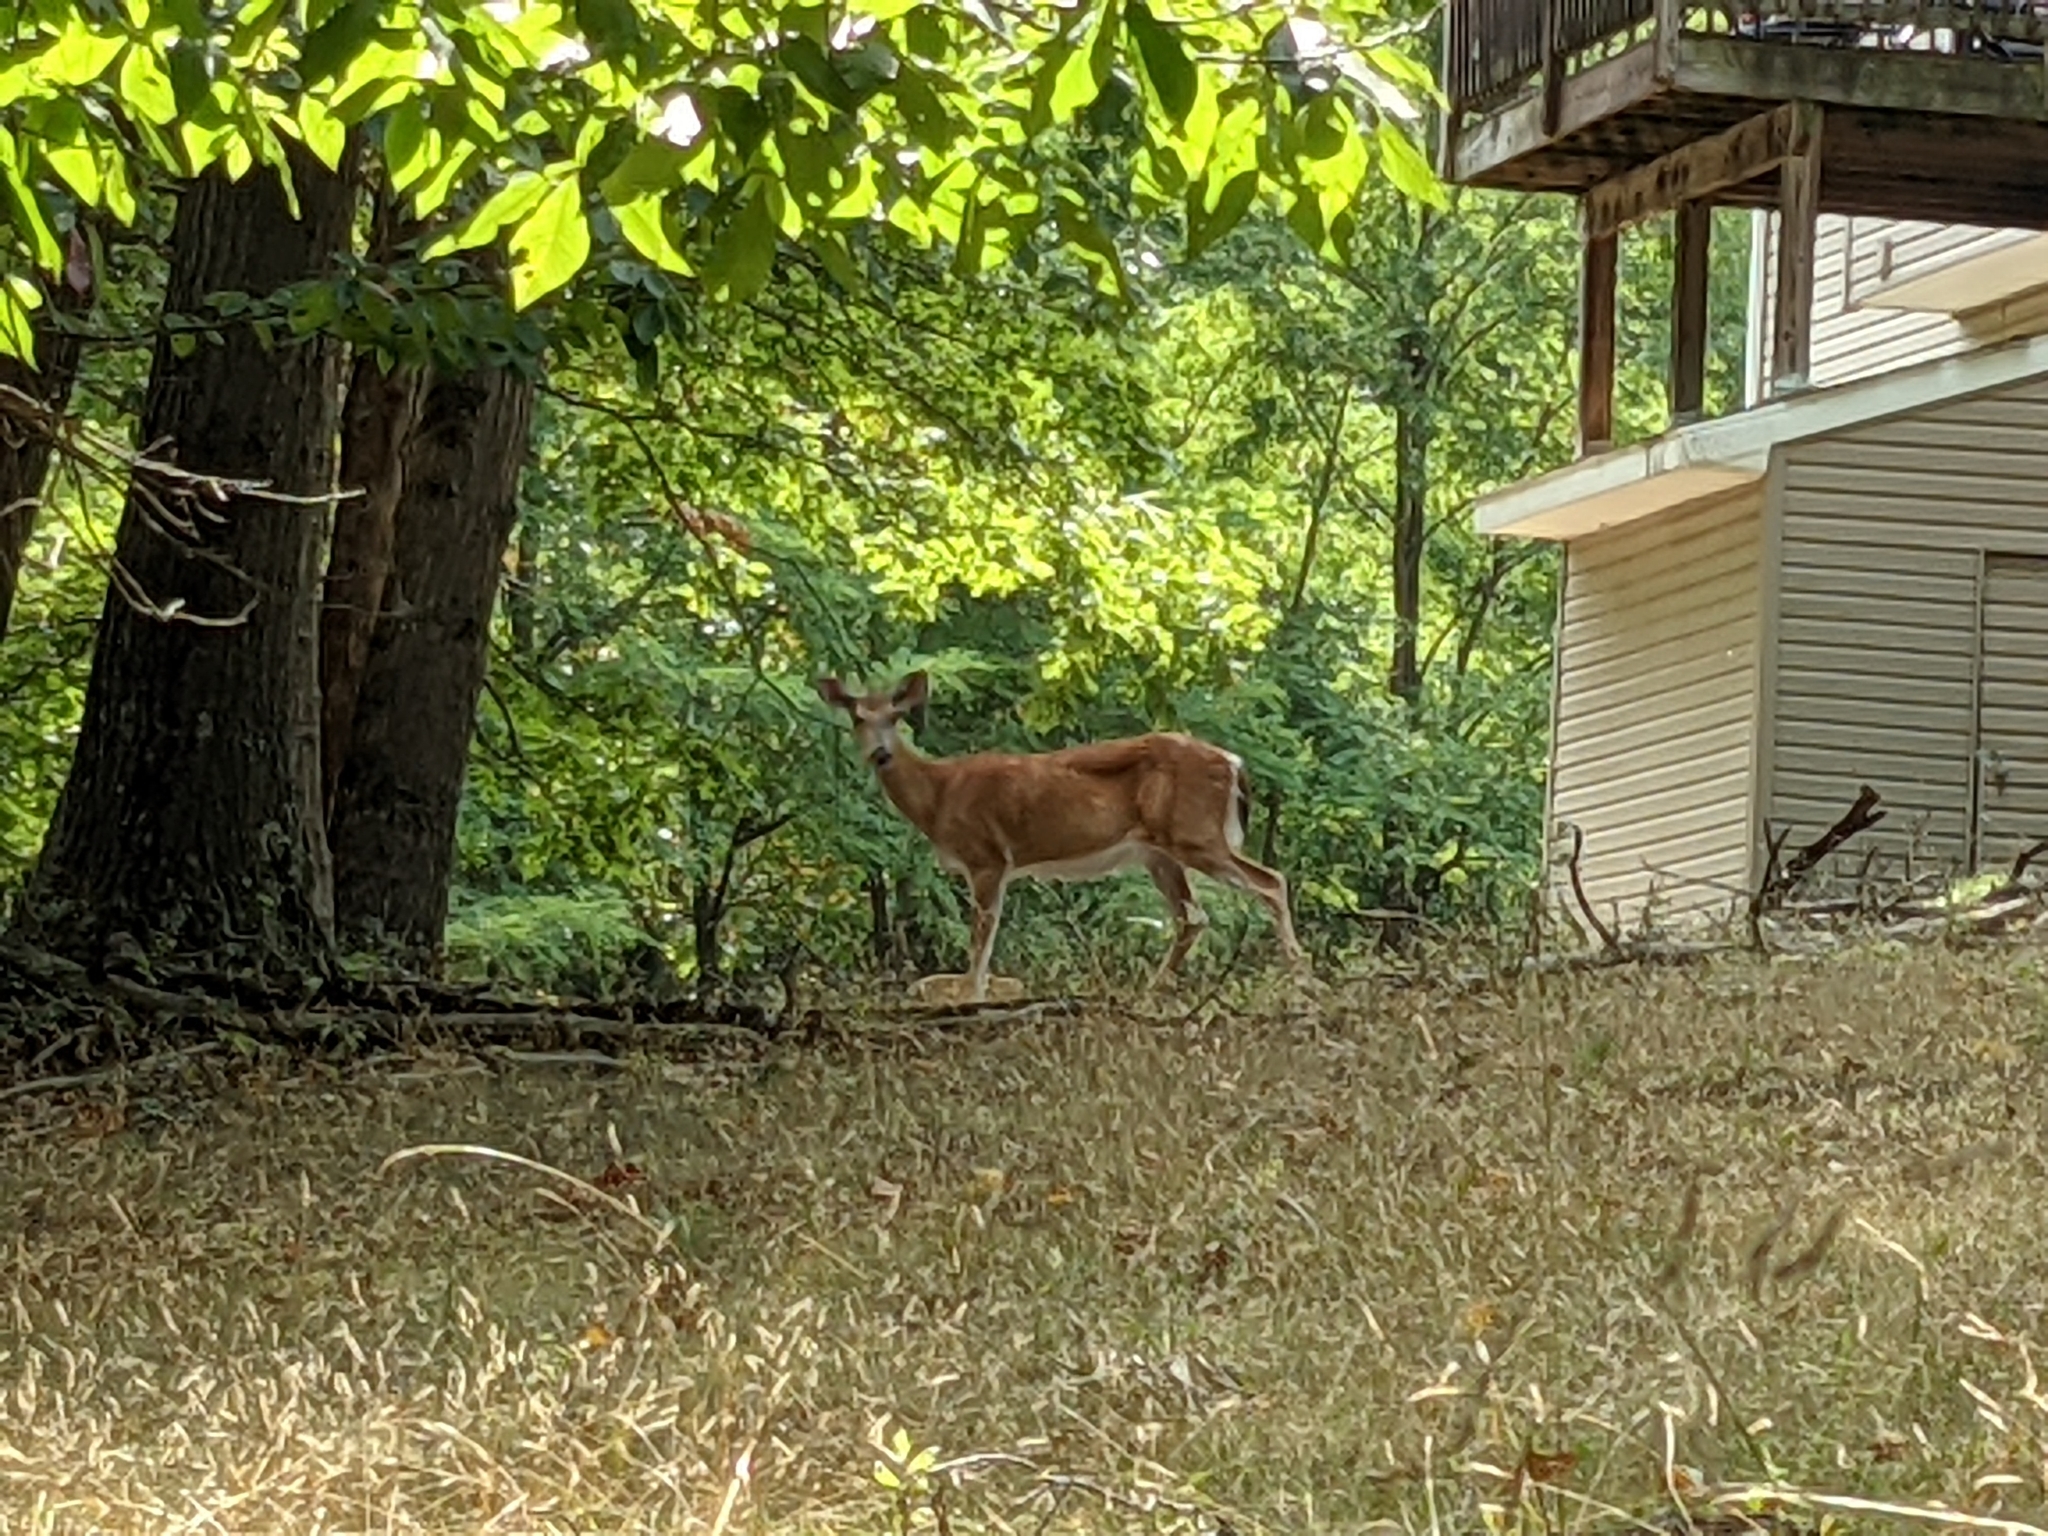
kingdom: Animalia
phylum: Chordata
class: Mammalia
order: Artiodactyla
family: Cervidae
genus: Odocoileus
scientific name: Odocoileus virginianus
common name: White-tailed deer
